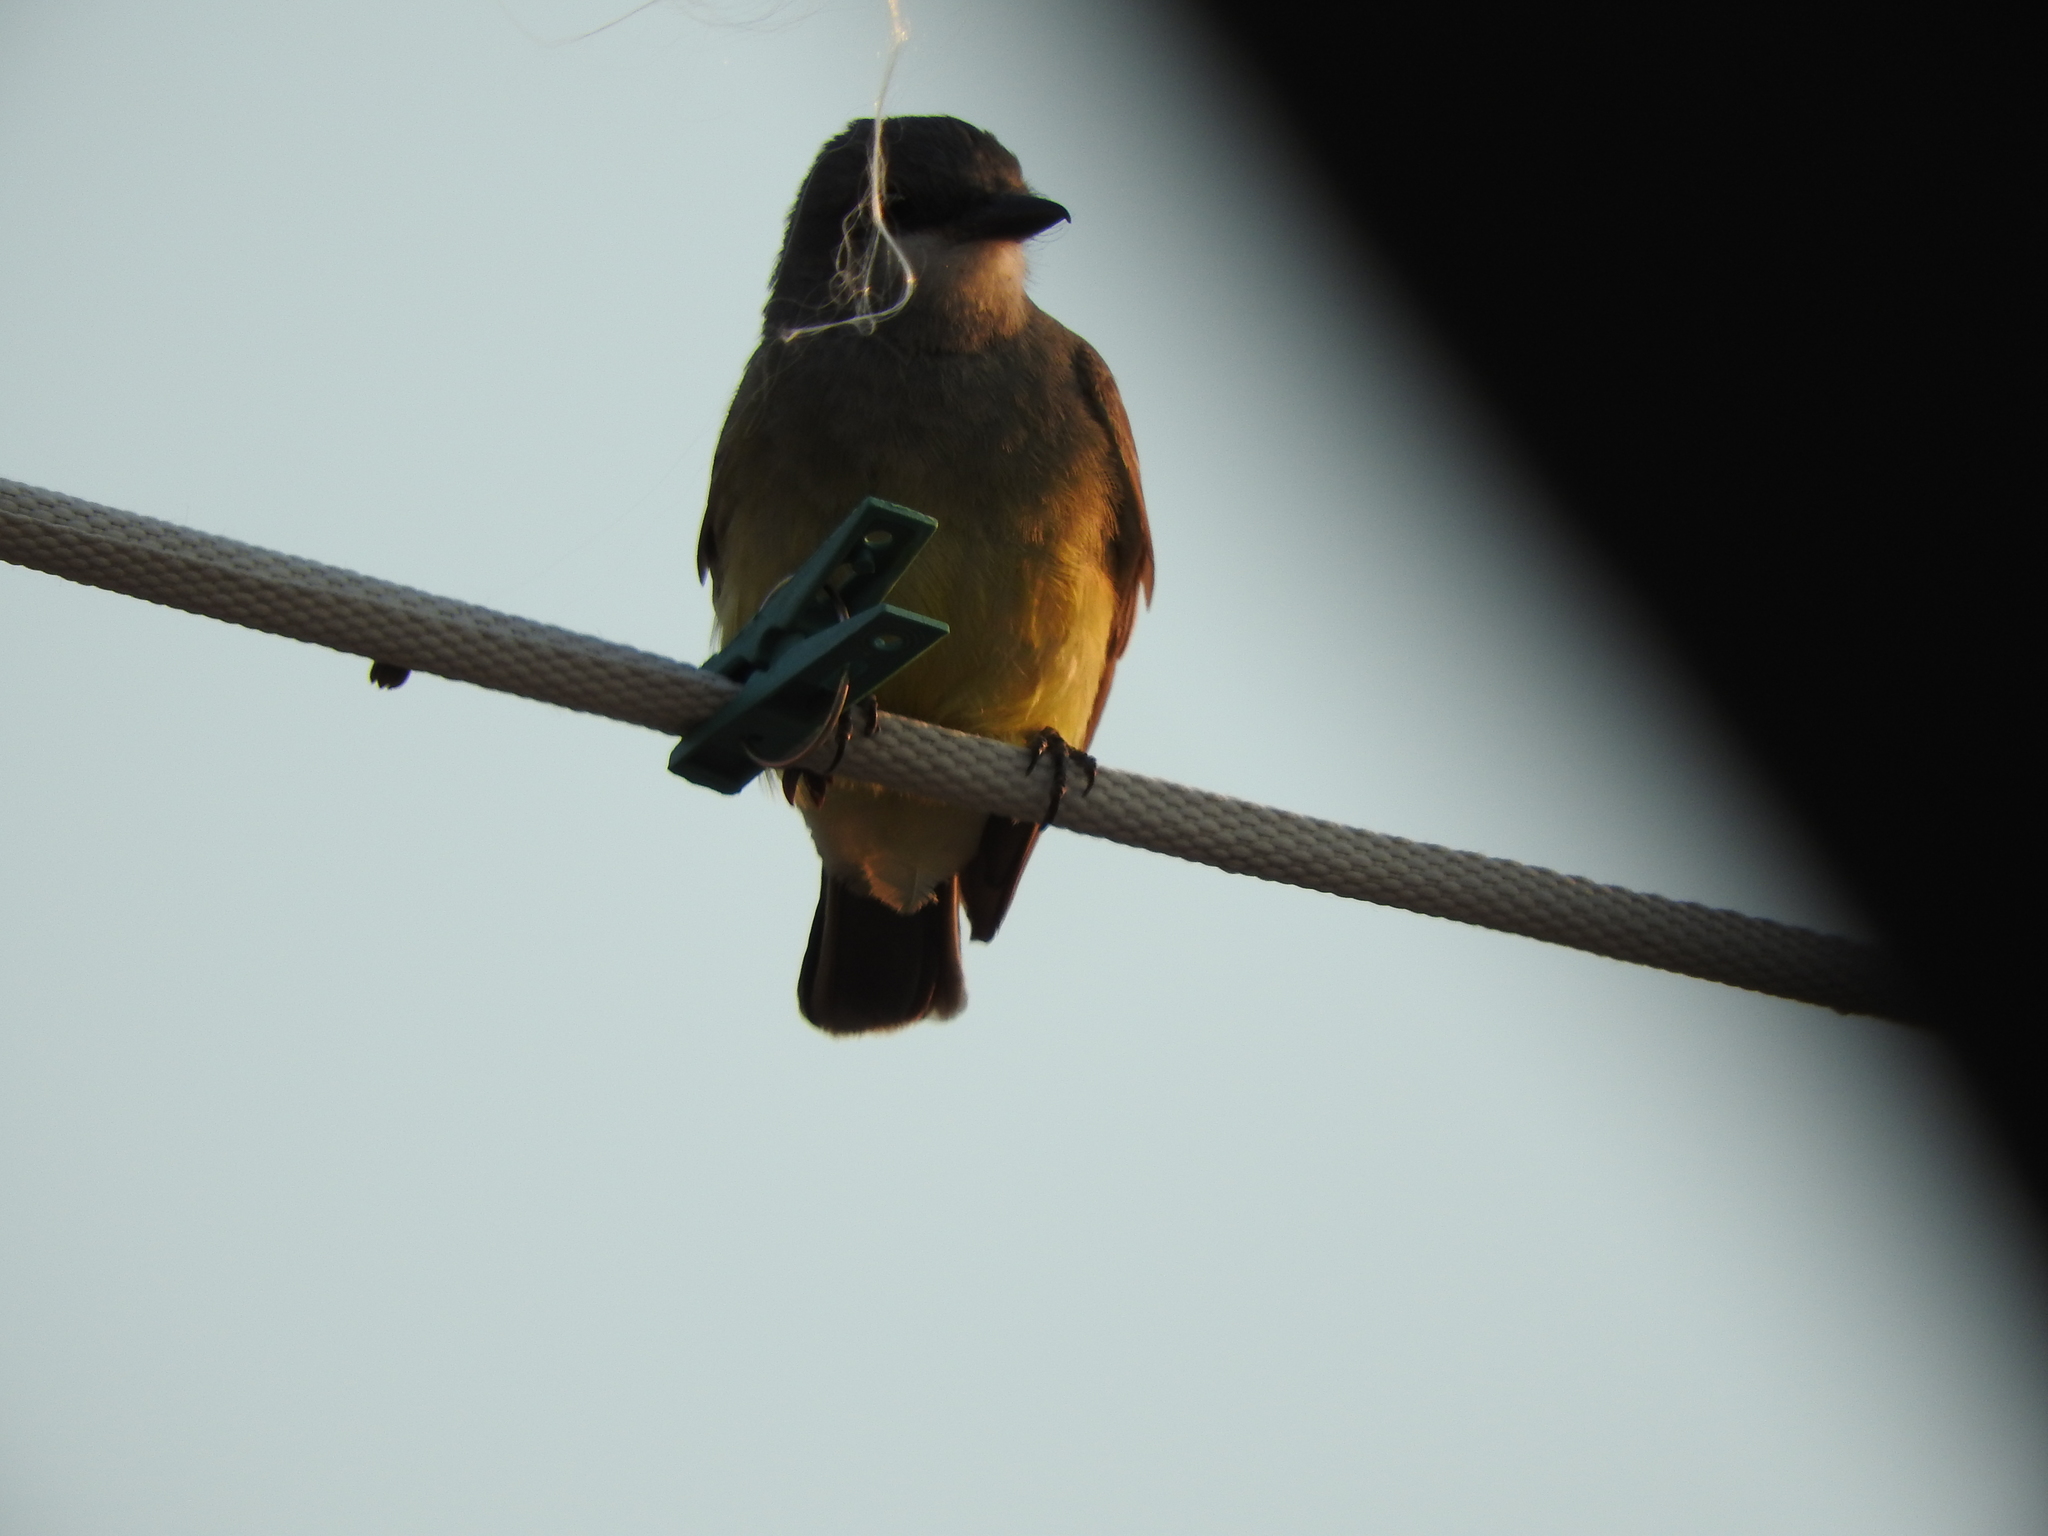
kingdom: Animalia
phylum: Chordata
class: Aves
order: Passeriformes
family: Tyrannidae
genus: Tyrannus
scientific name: Tyrannus vociferans
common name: Cassin's kingbird
